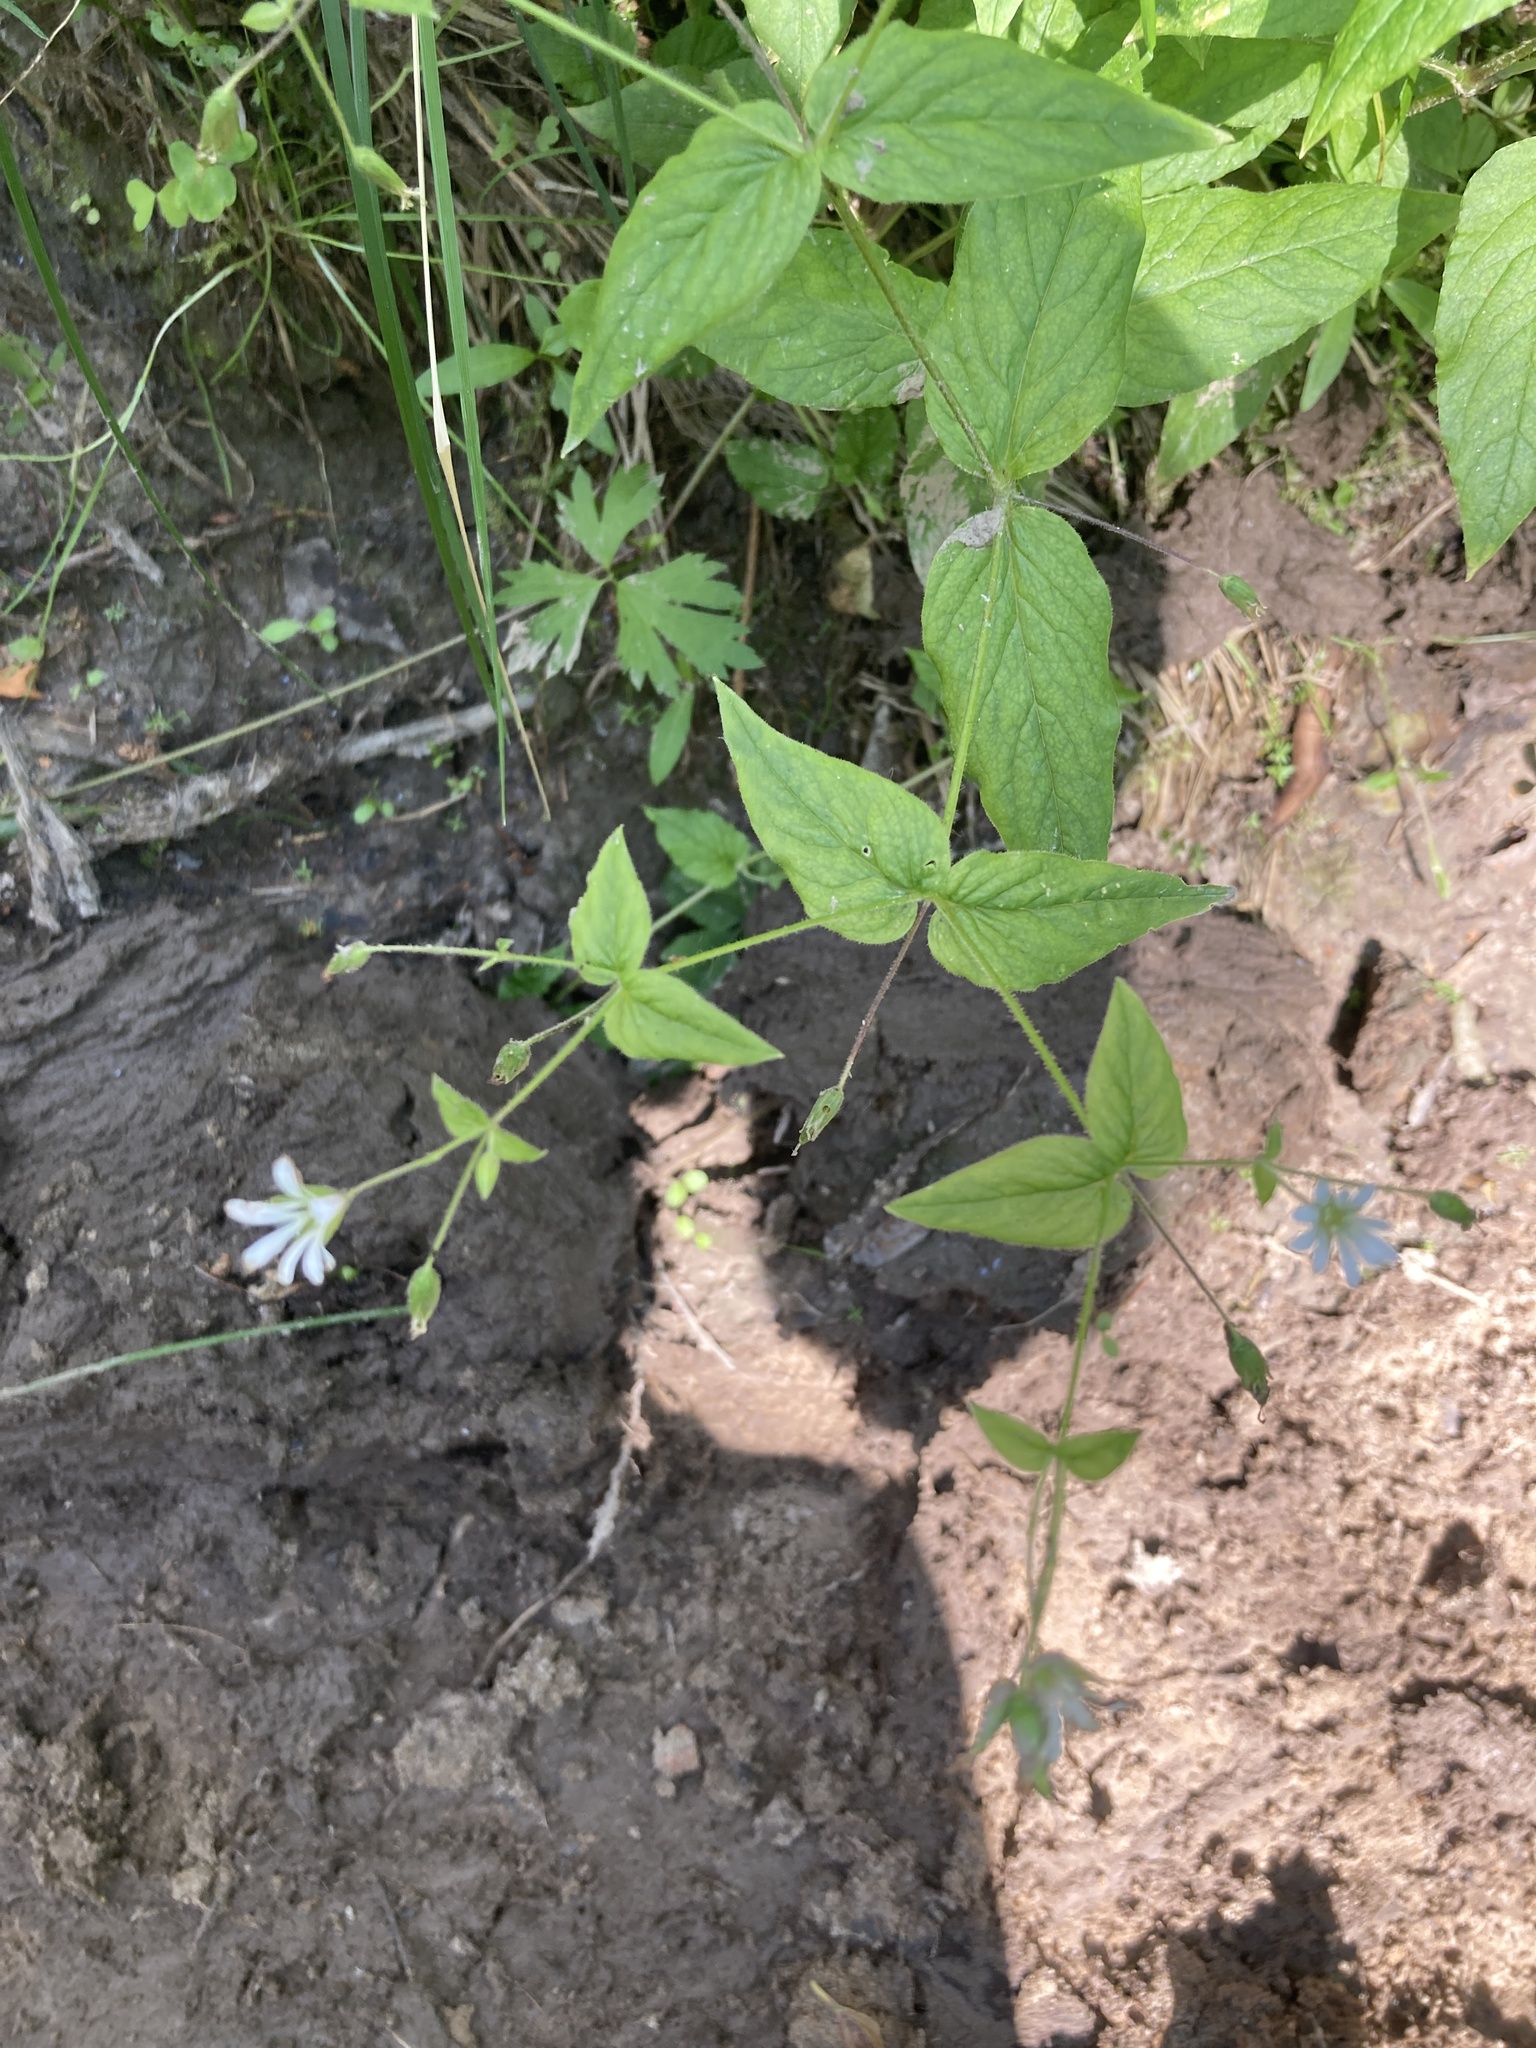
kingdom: Plantae
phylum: Tracheophyta
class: Magnoliopsida
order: Caryophyllales
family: Caryophyllaceae
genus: Stellaria
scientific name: Stellaria nemorum
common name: Wood stitchwort
